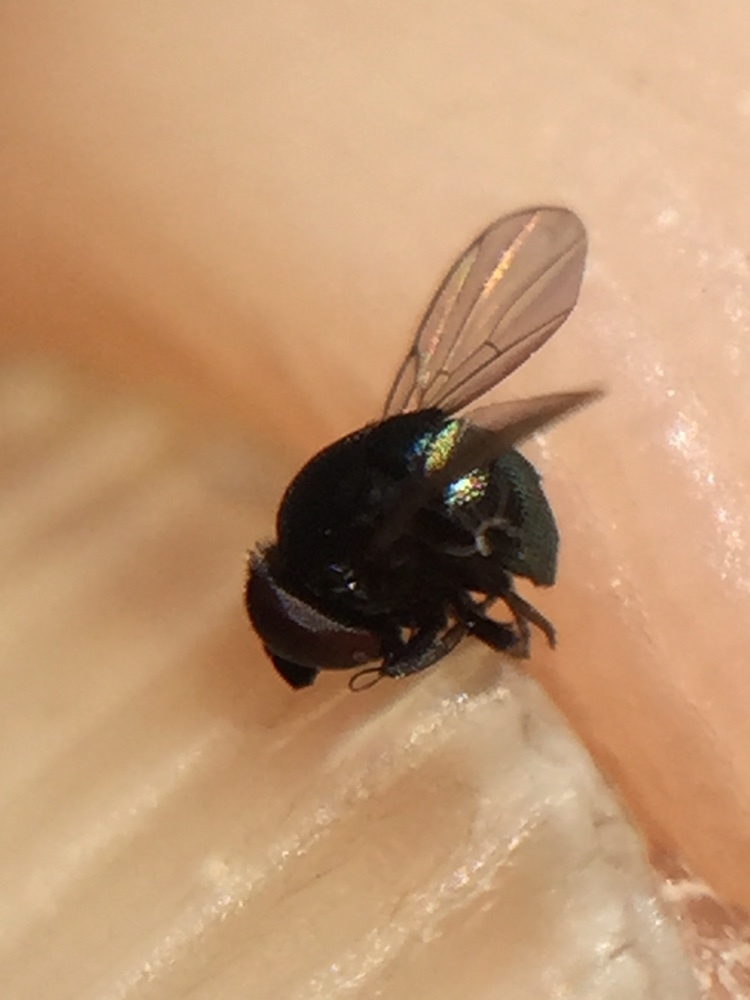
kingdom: Animalia
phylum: Arthropoda
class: Insecta
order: Diptera
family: Cryptochetidae
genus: Cryptochetum
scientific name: Cryptochetum iceryae
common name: Cottony cushion scale fly
